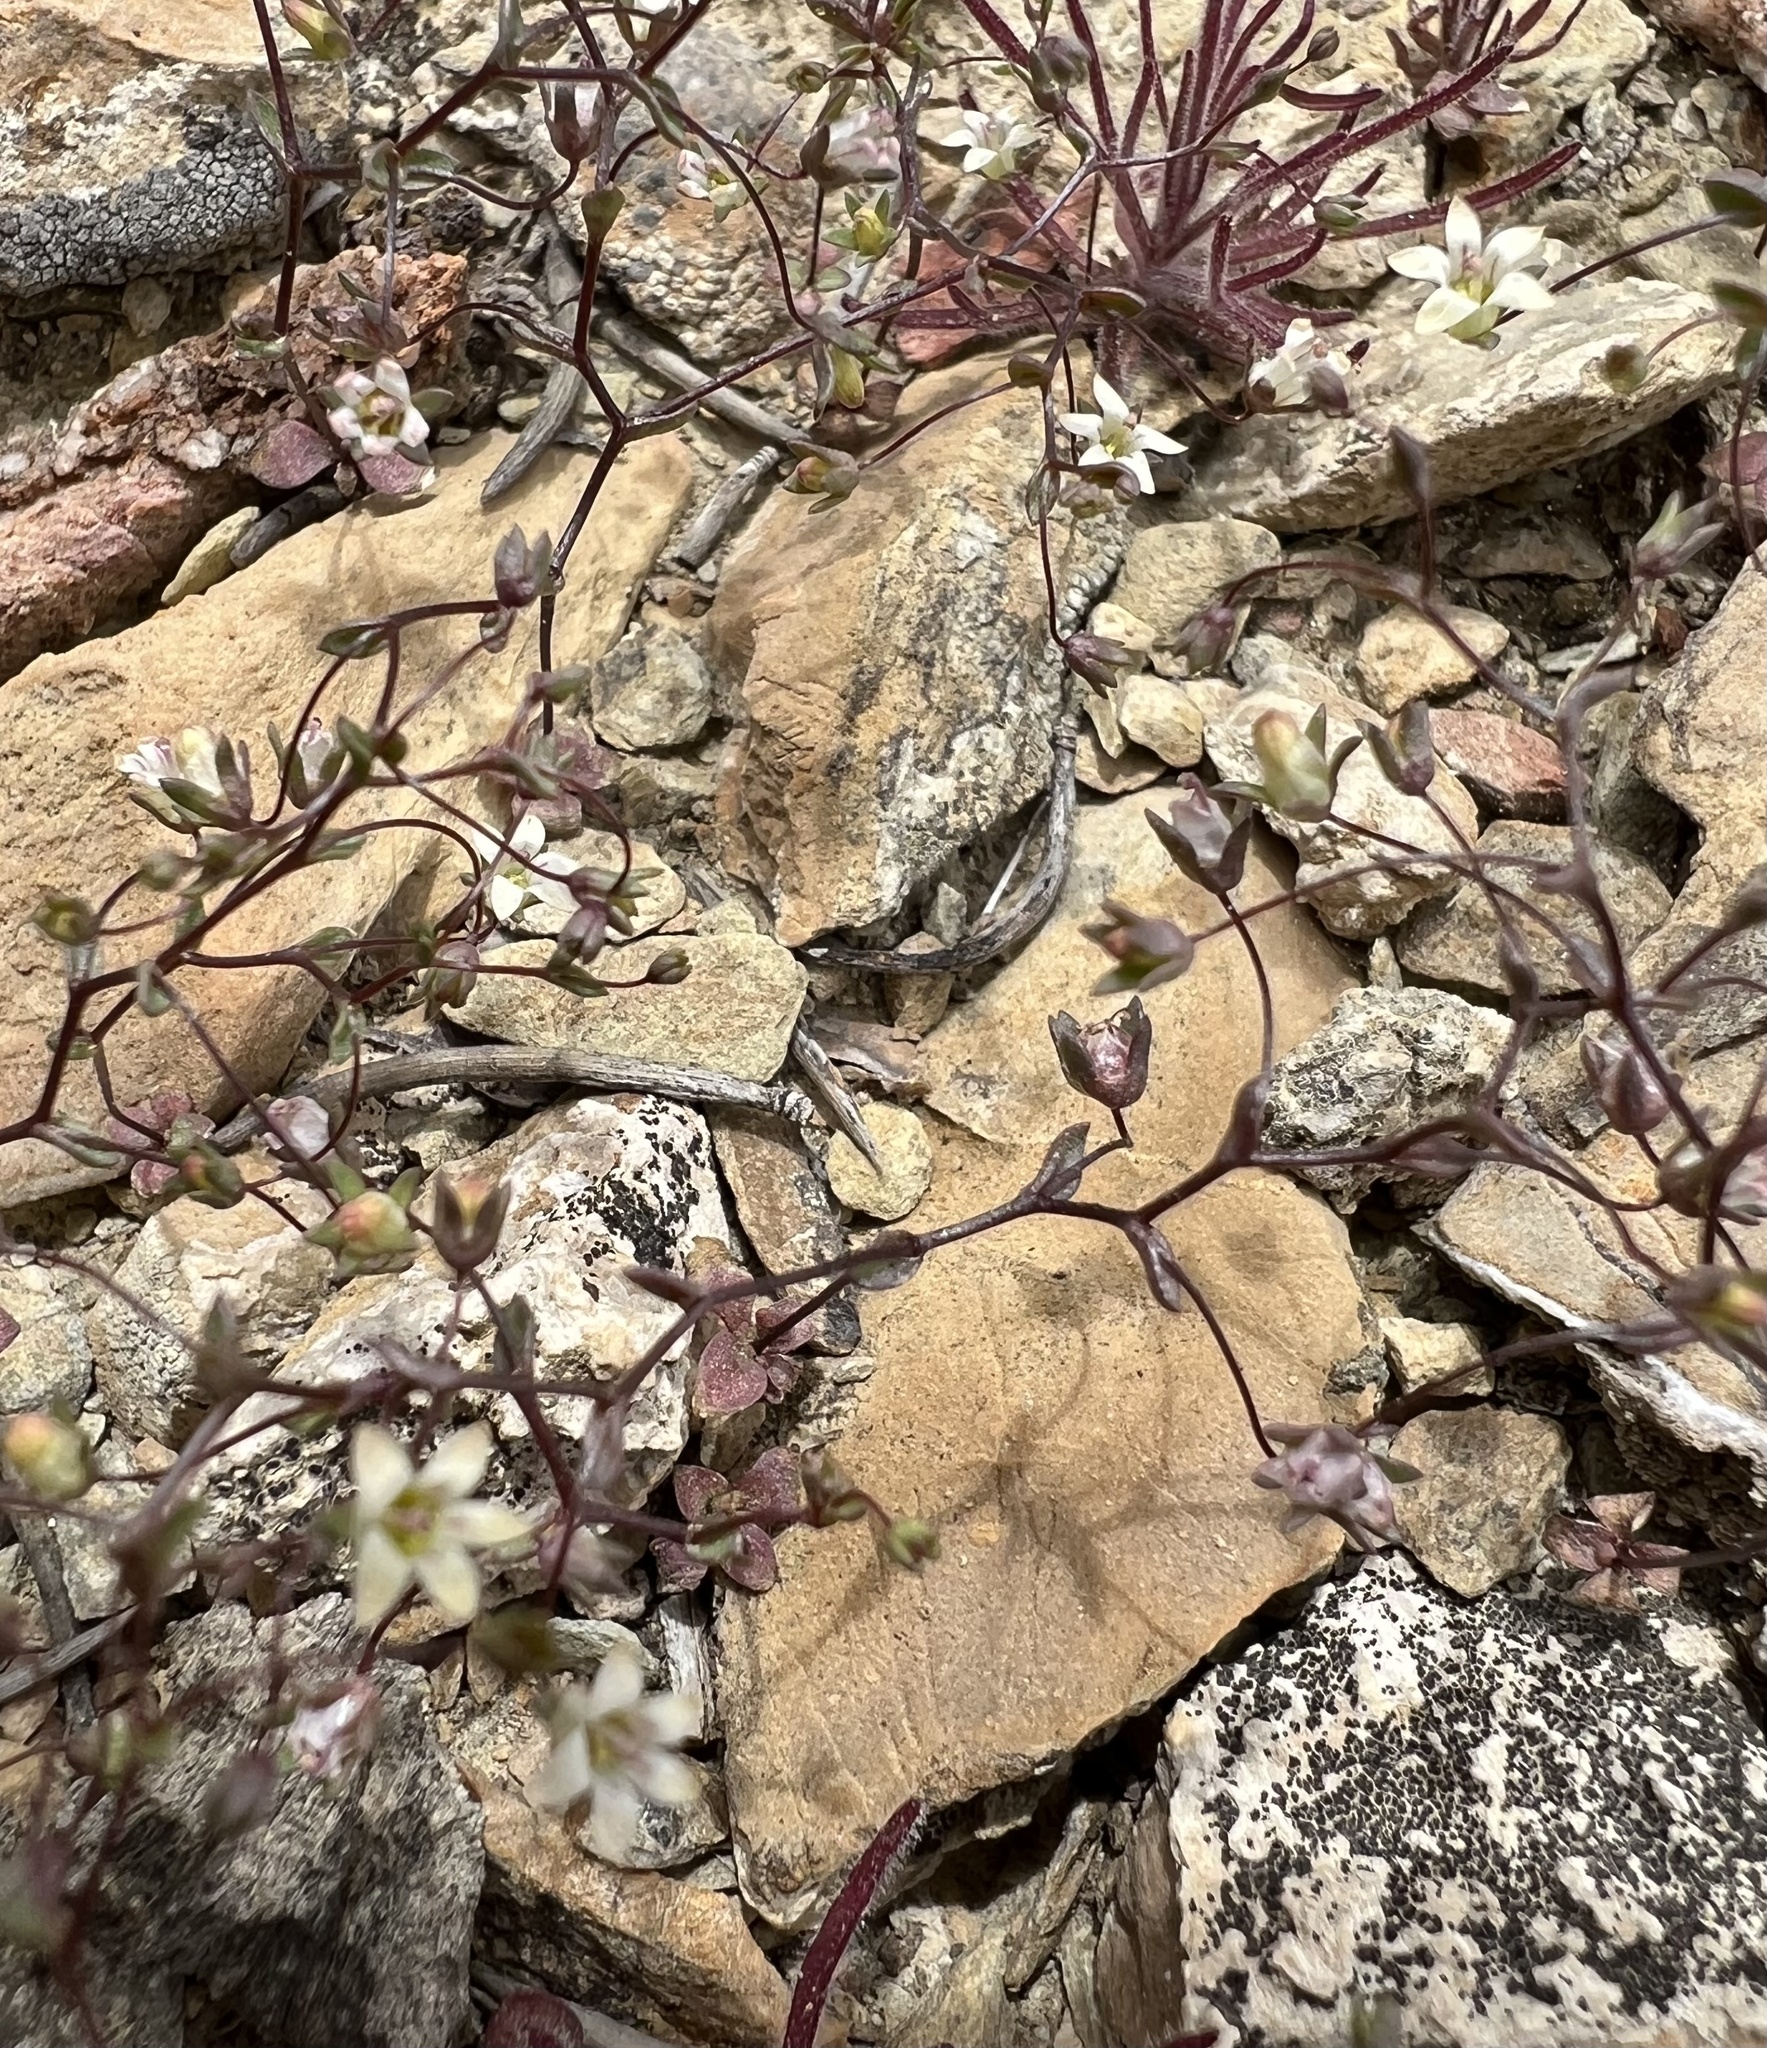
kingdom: Plantae
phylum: Tracheophyta
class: Magnoliopsida
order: Asterales
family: Campanulaceae
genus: Nemacladus
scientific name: Nemacladus inyoensis
